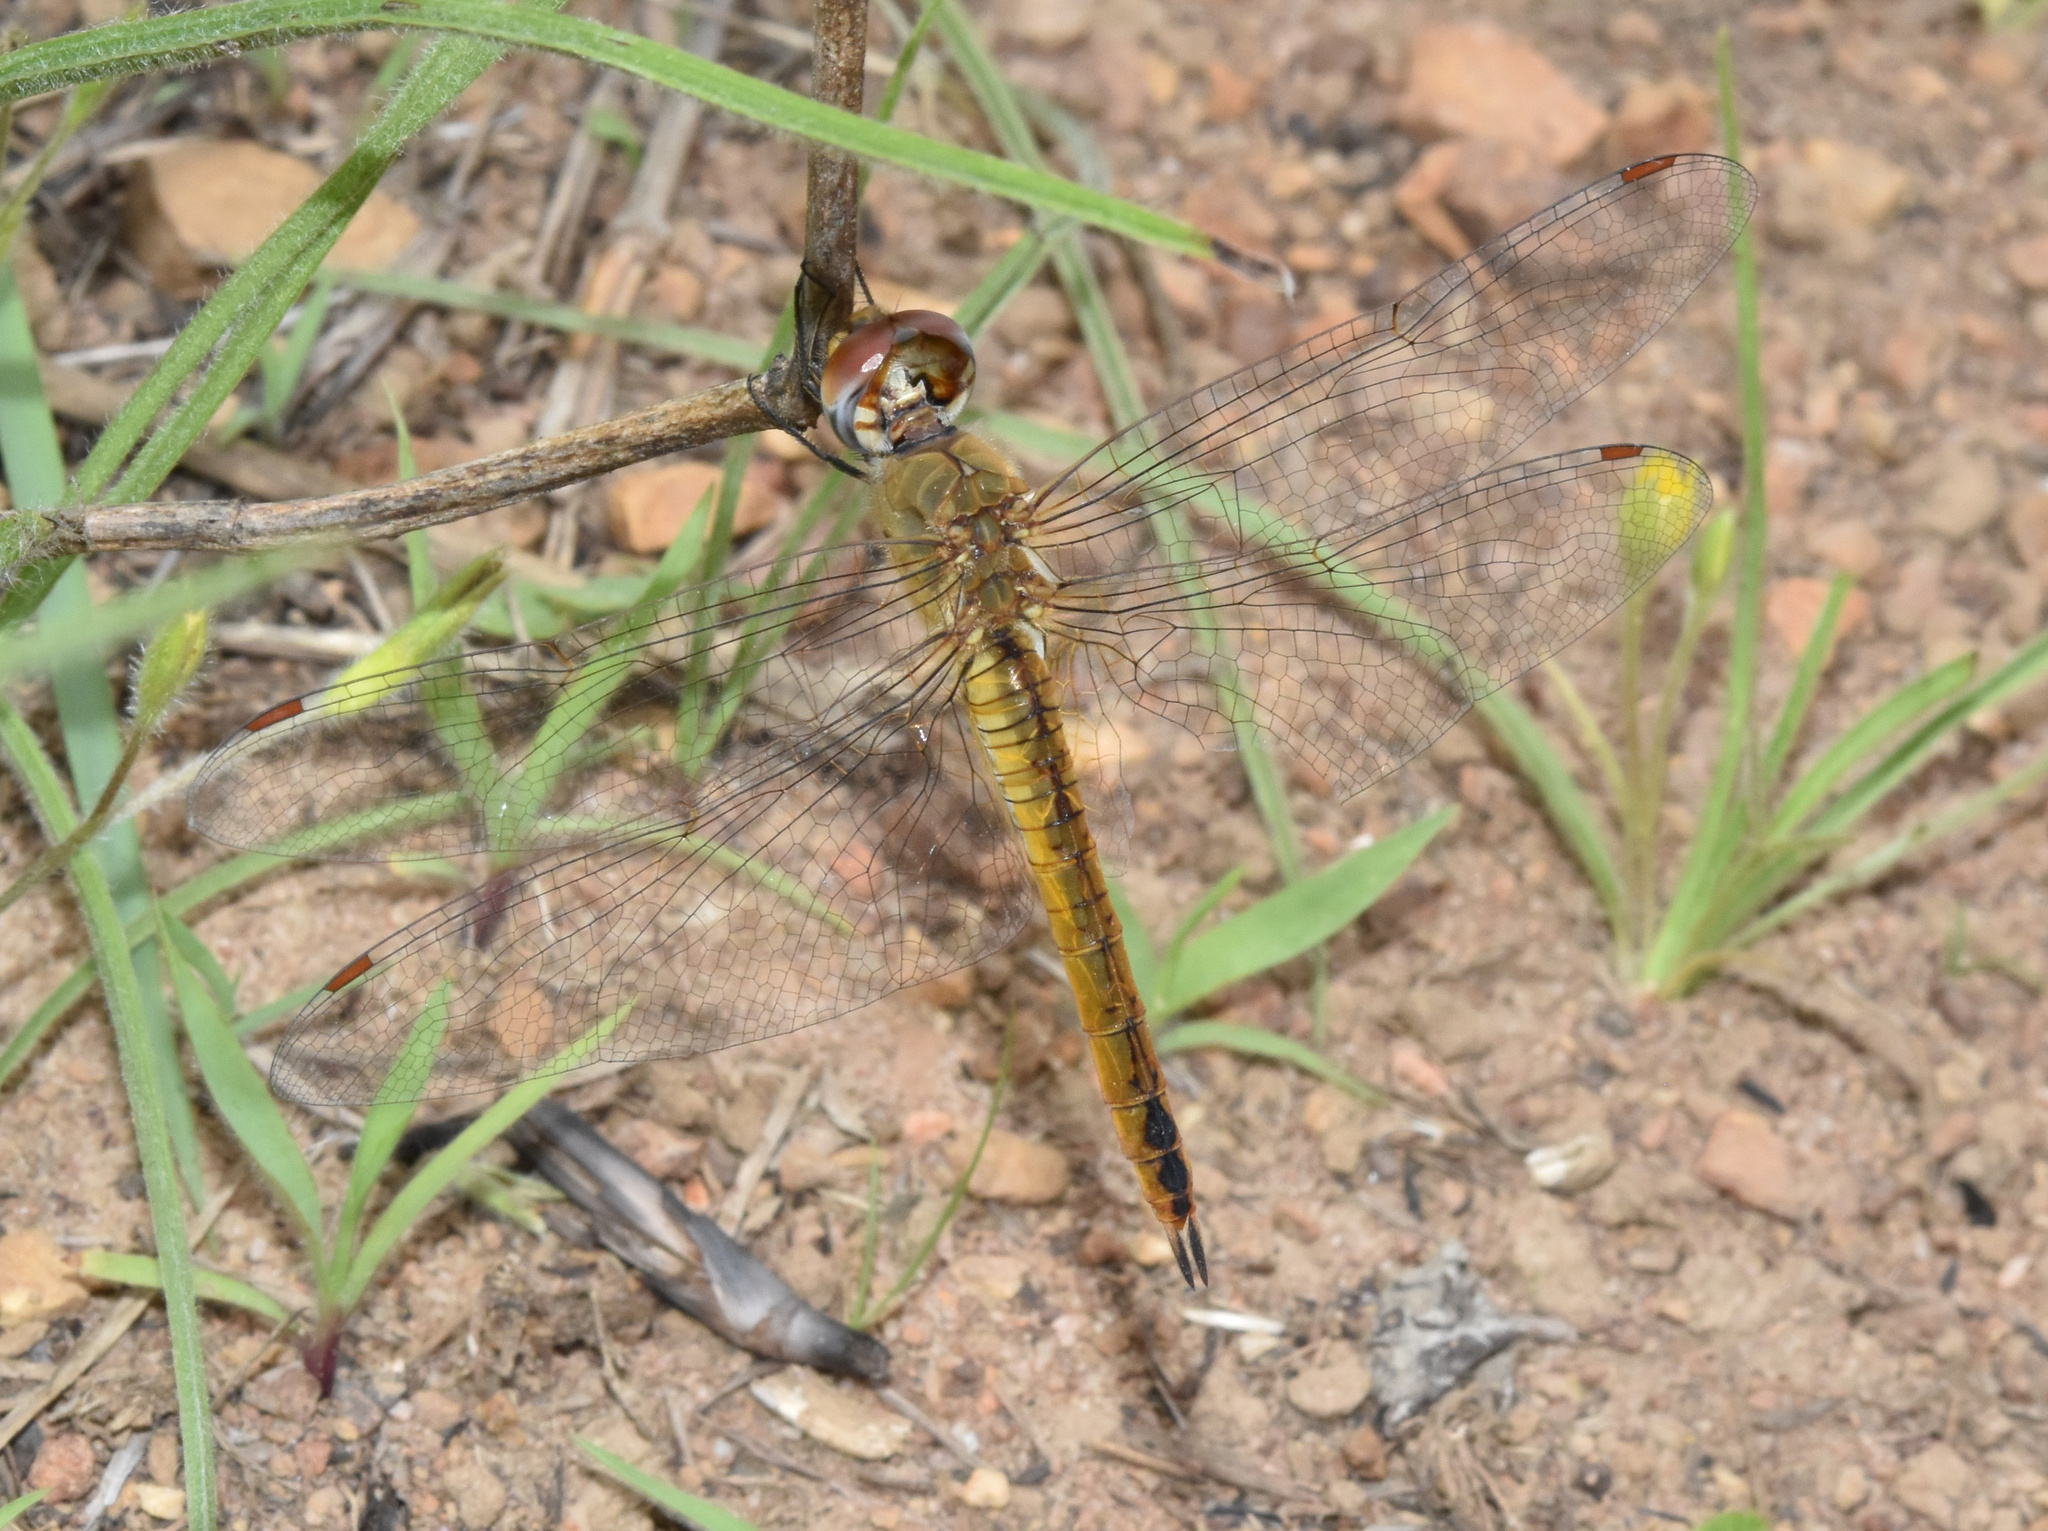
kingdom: Animalia
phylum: Arthropoda
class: Insecta
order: Odonata
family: Libellulidae
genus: Pantala
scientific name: Pantala flavescens
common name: Wandering glider
